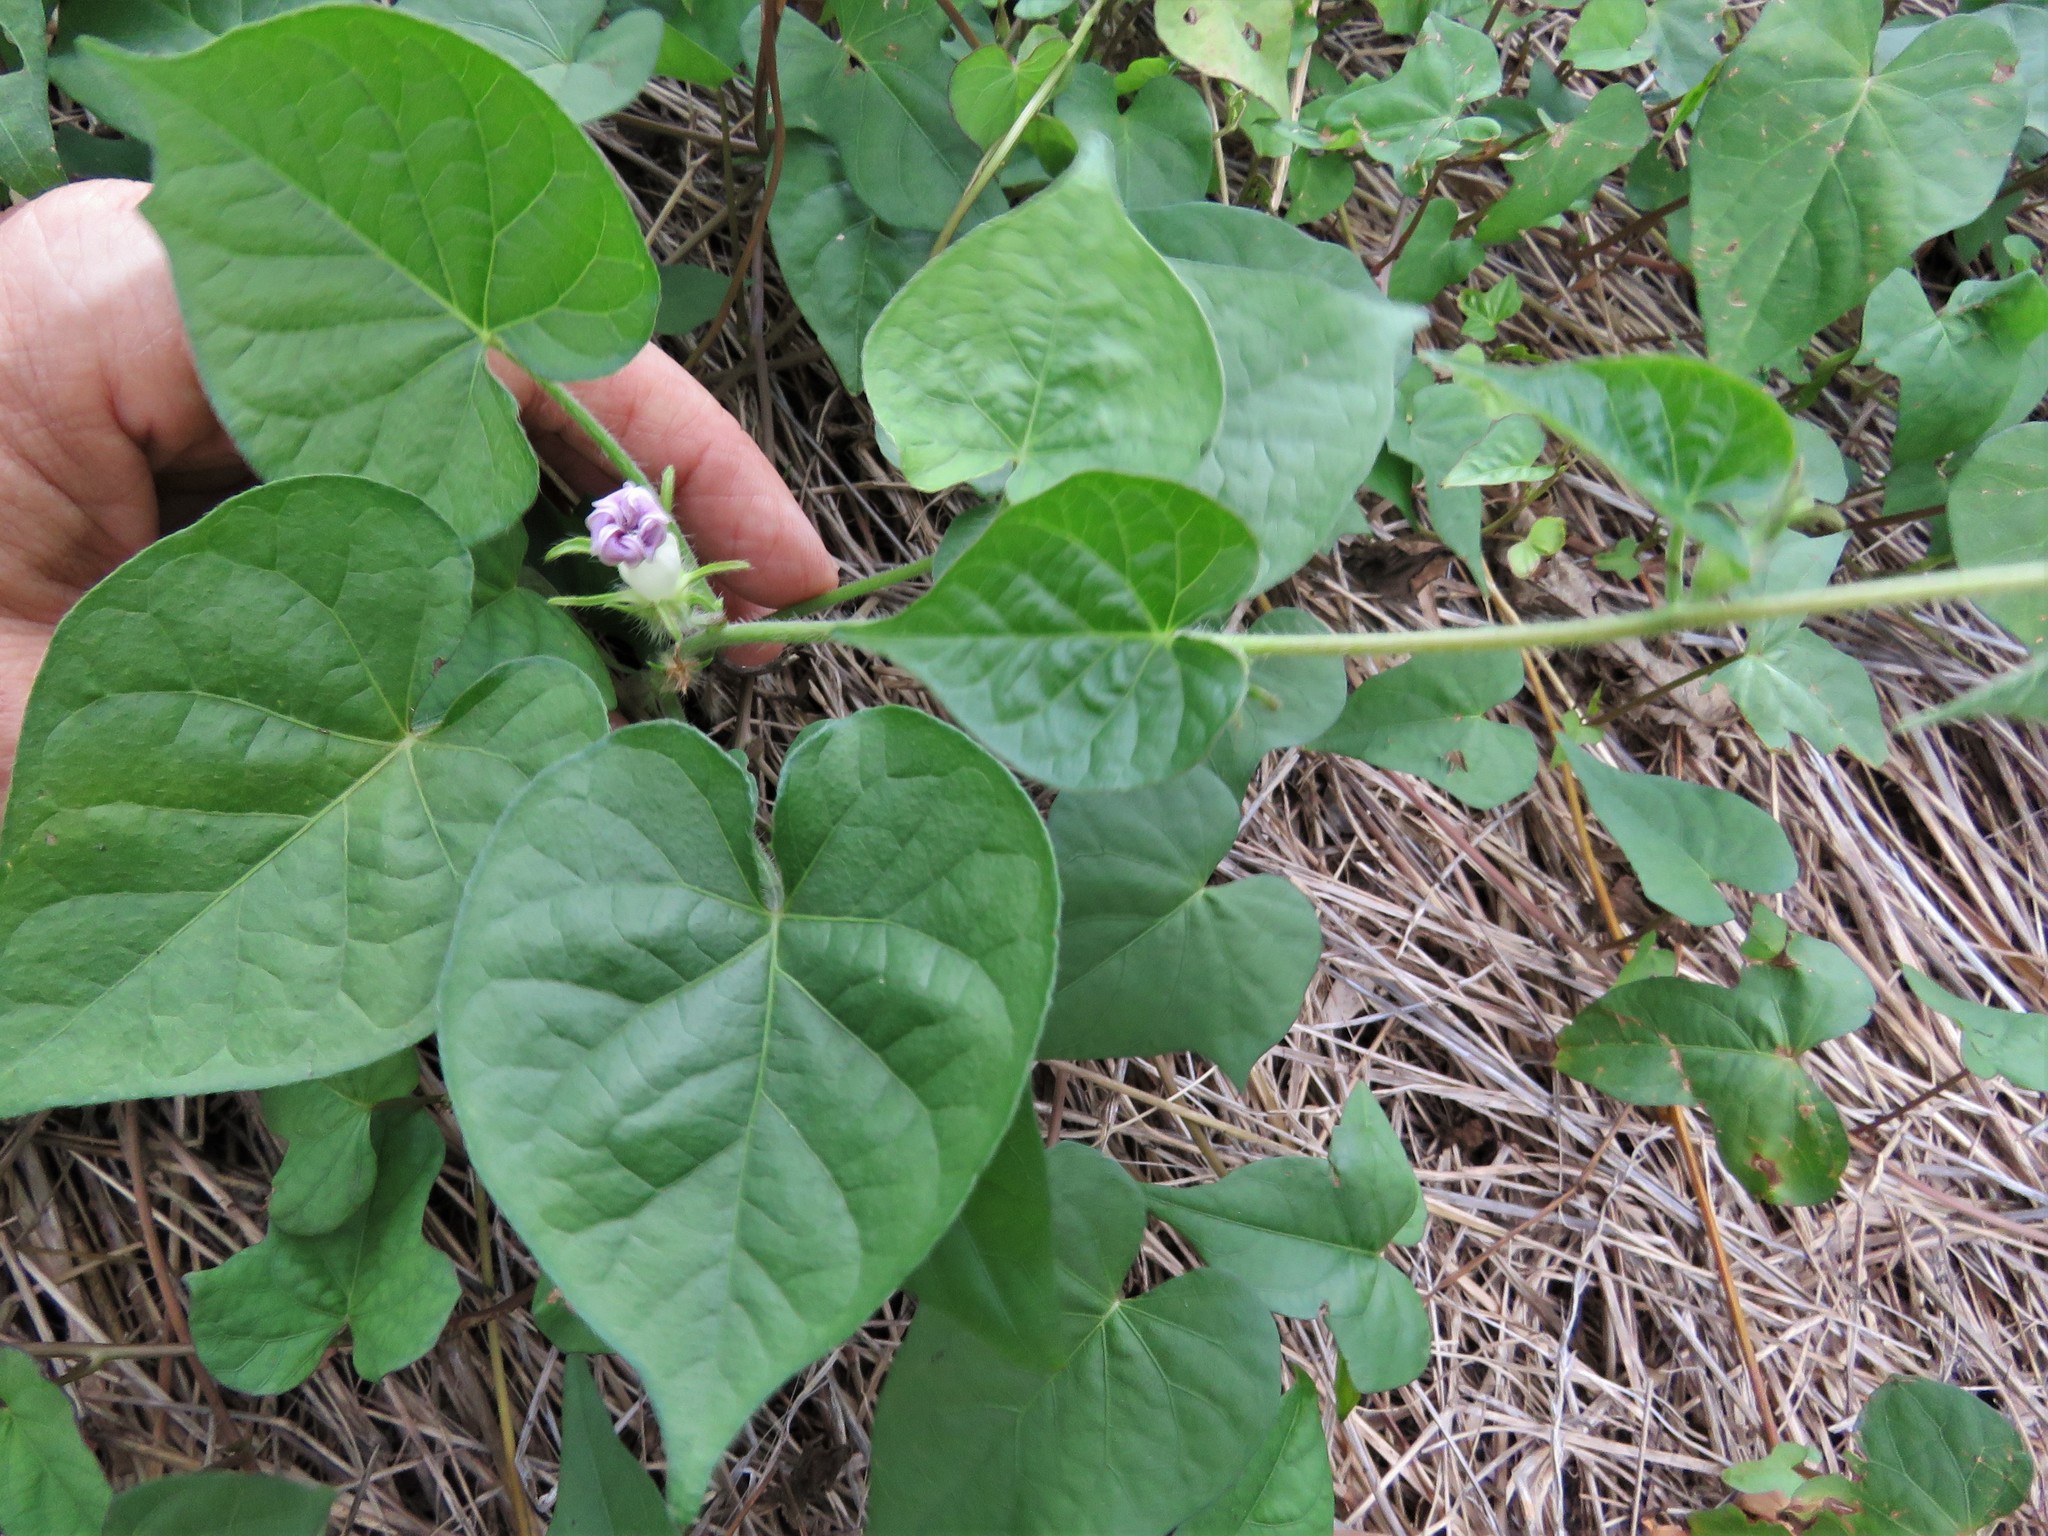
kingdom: Plantae
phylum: Tracheophyta
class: Magnoliopsida
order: Solanales
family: Convolvulaceae
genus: Ipomoea
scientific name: Ipomoea cordatotriloba
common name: Cotton morning glory
